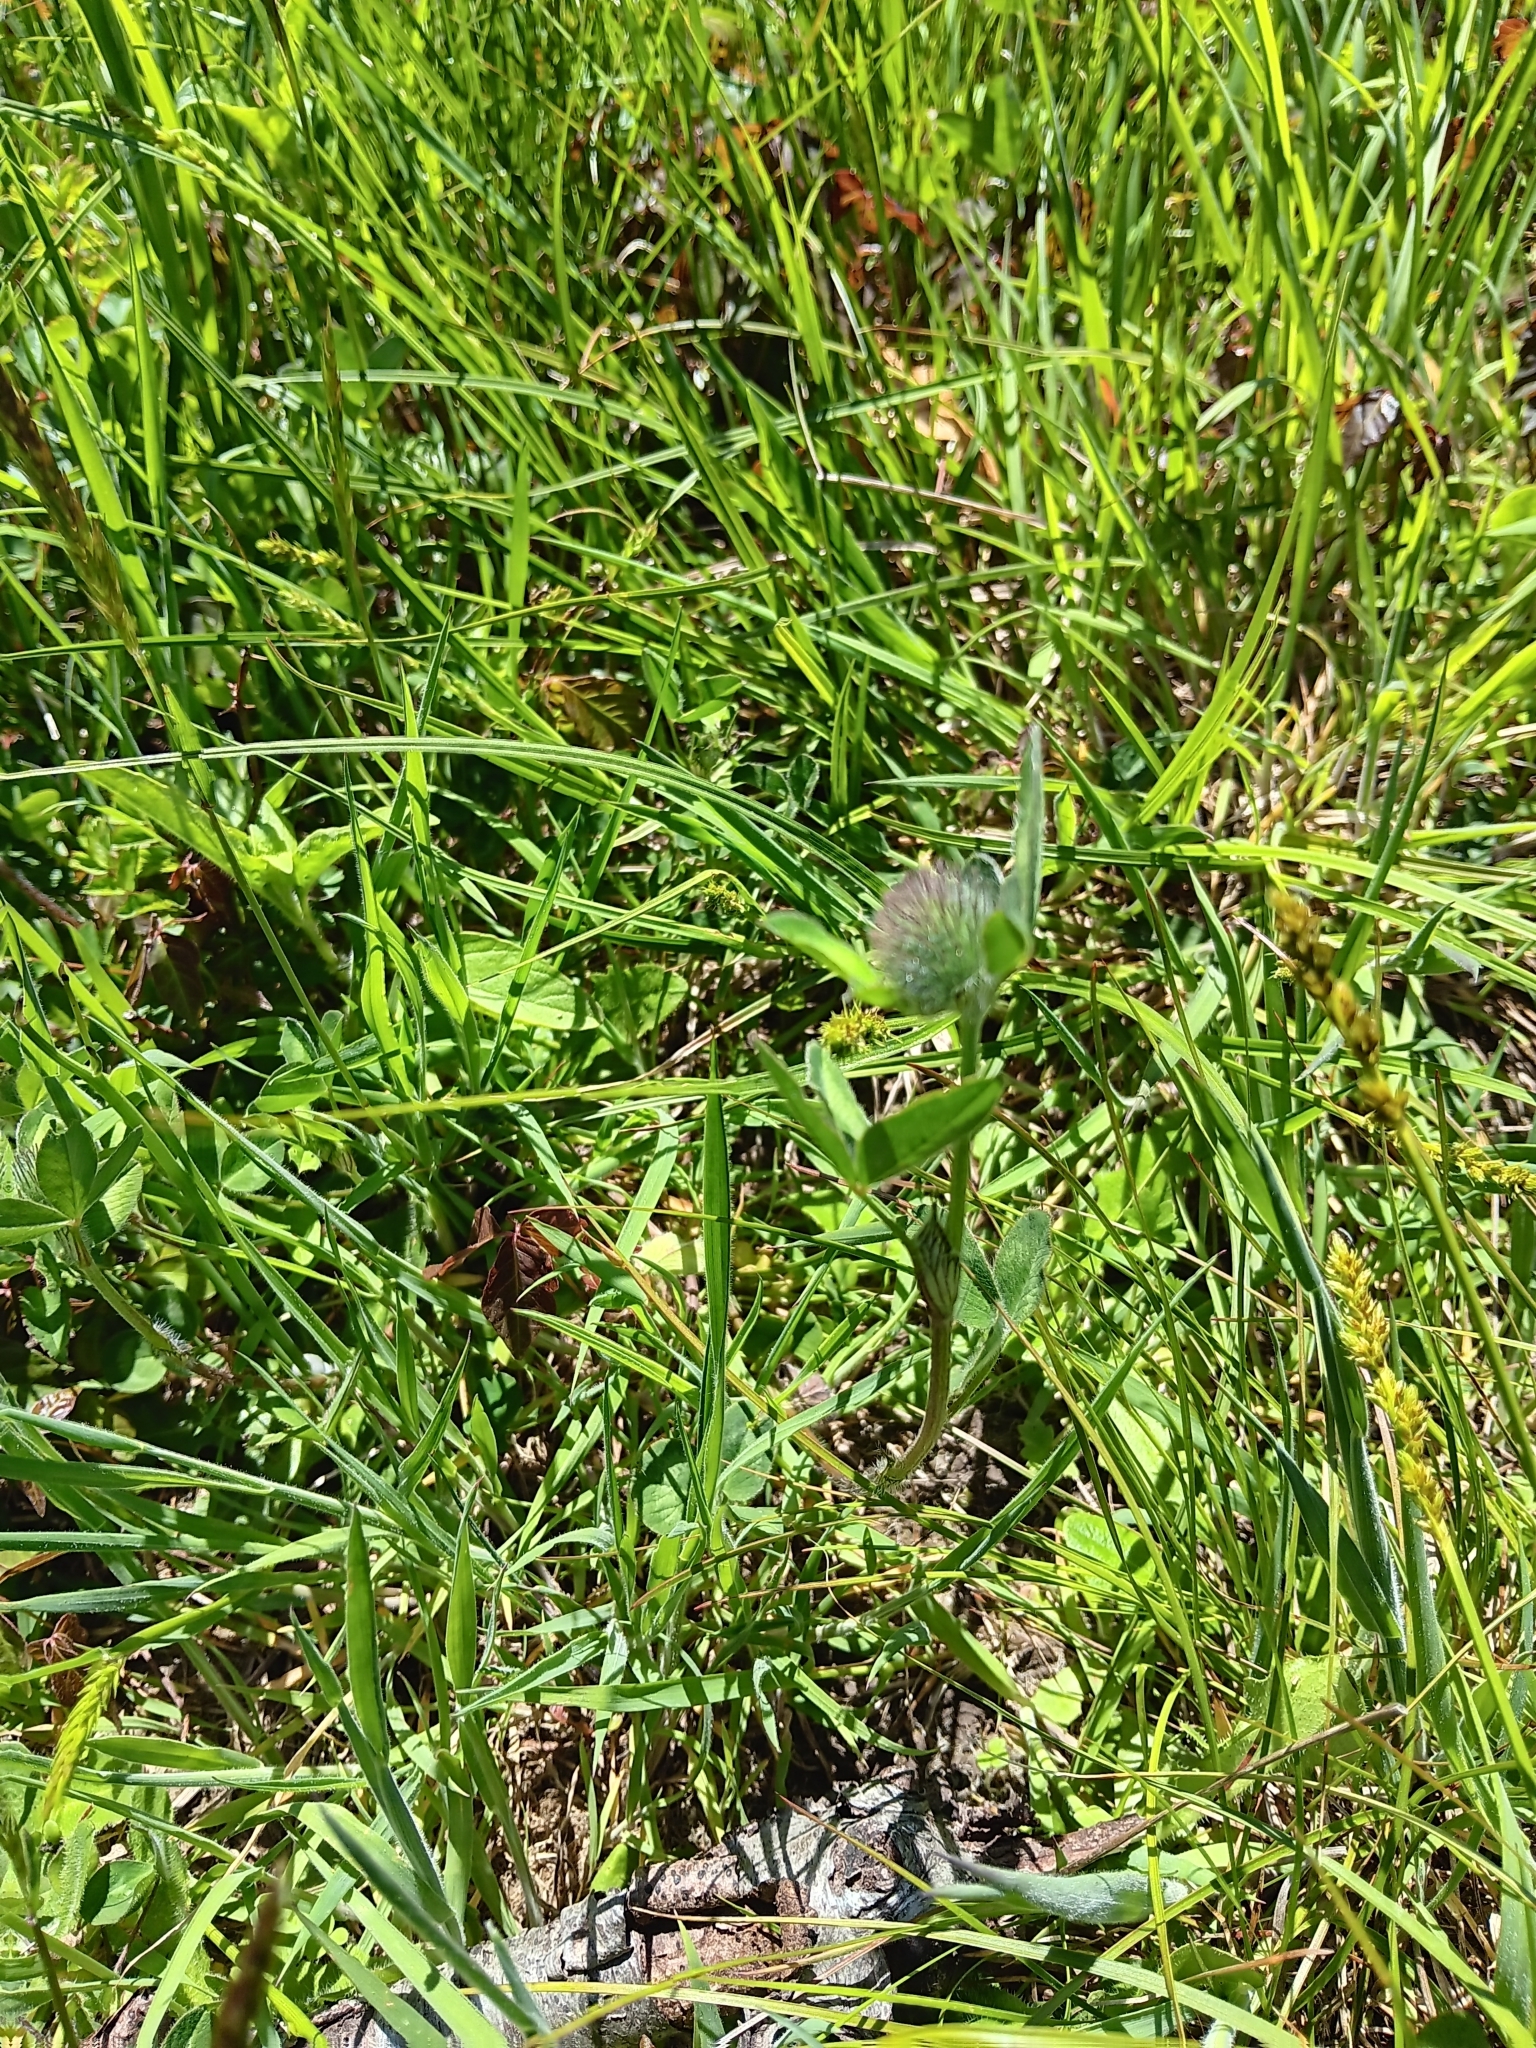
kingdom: Plantae
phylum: Tracheophyta
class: Magnoliopsida
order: Fabales
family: Fabaceae
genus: Trifolium
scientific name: Trifolium pratense
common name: Red clover
